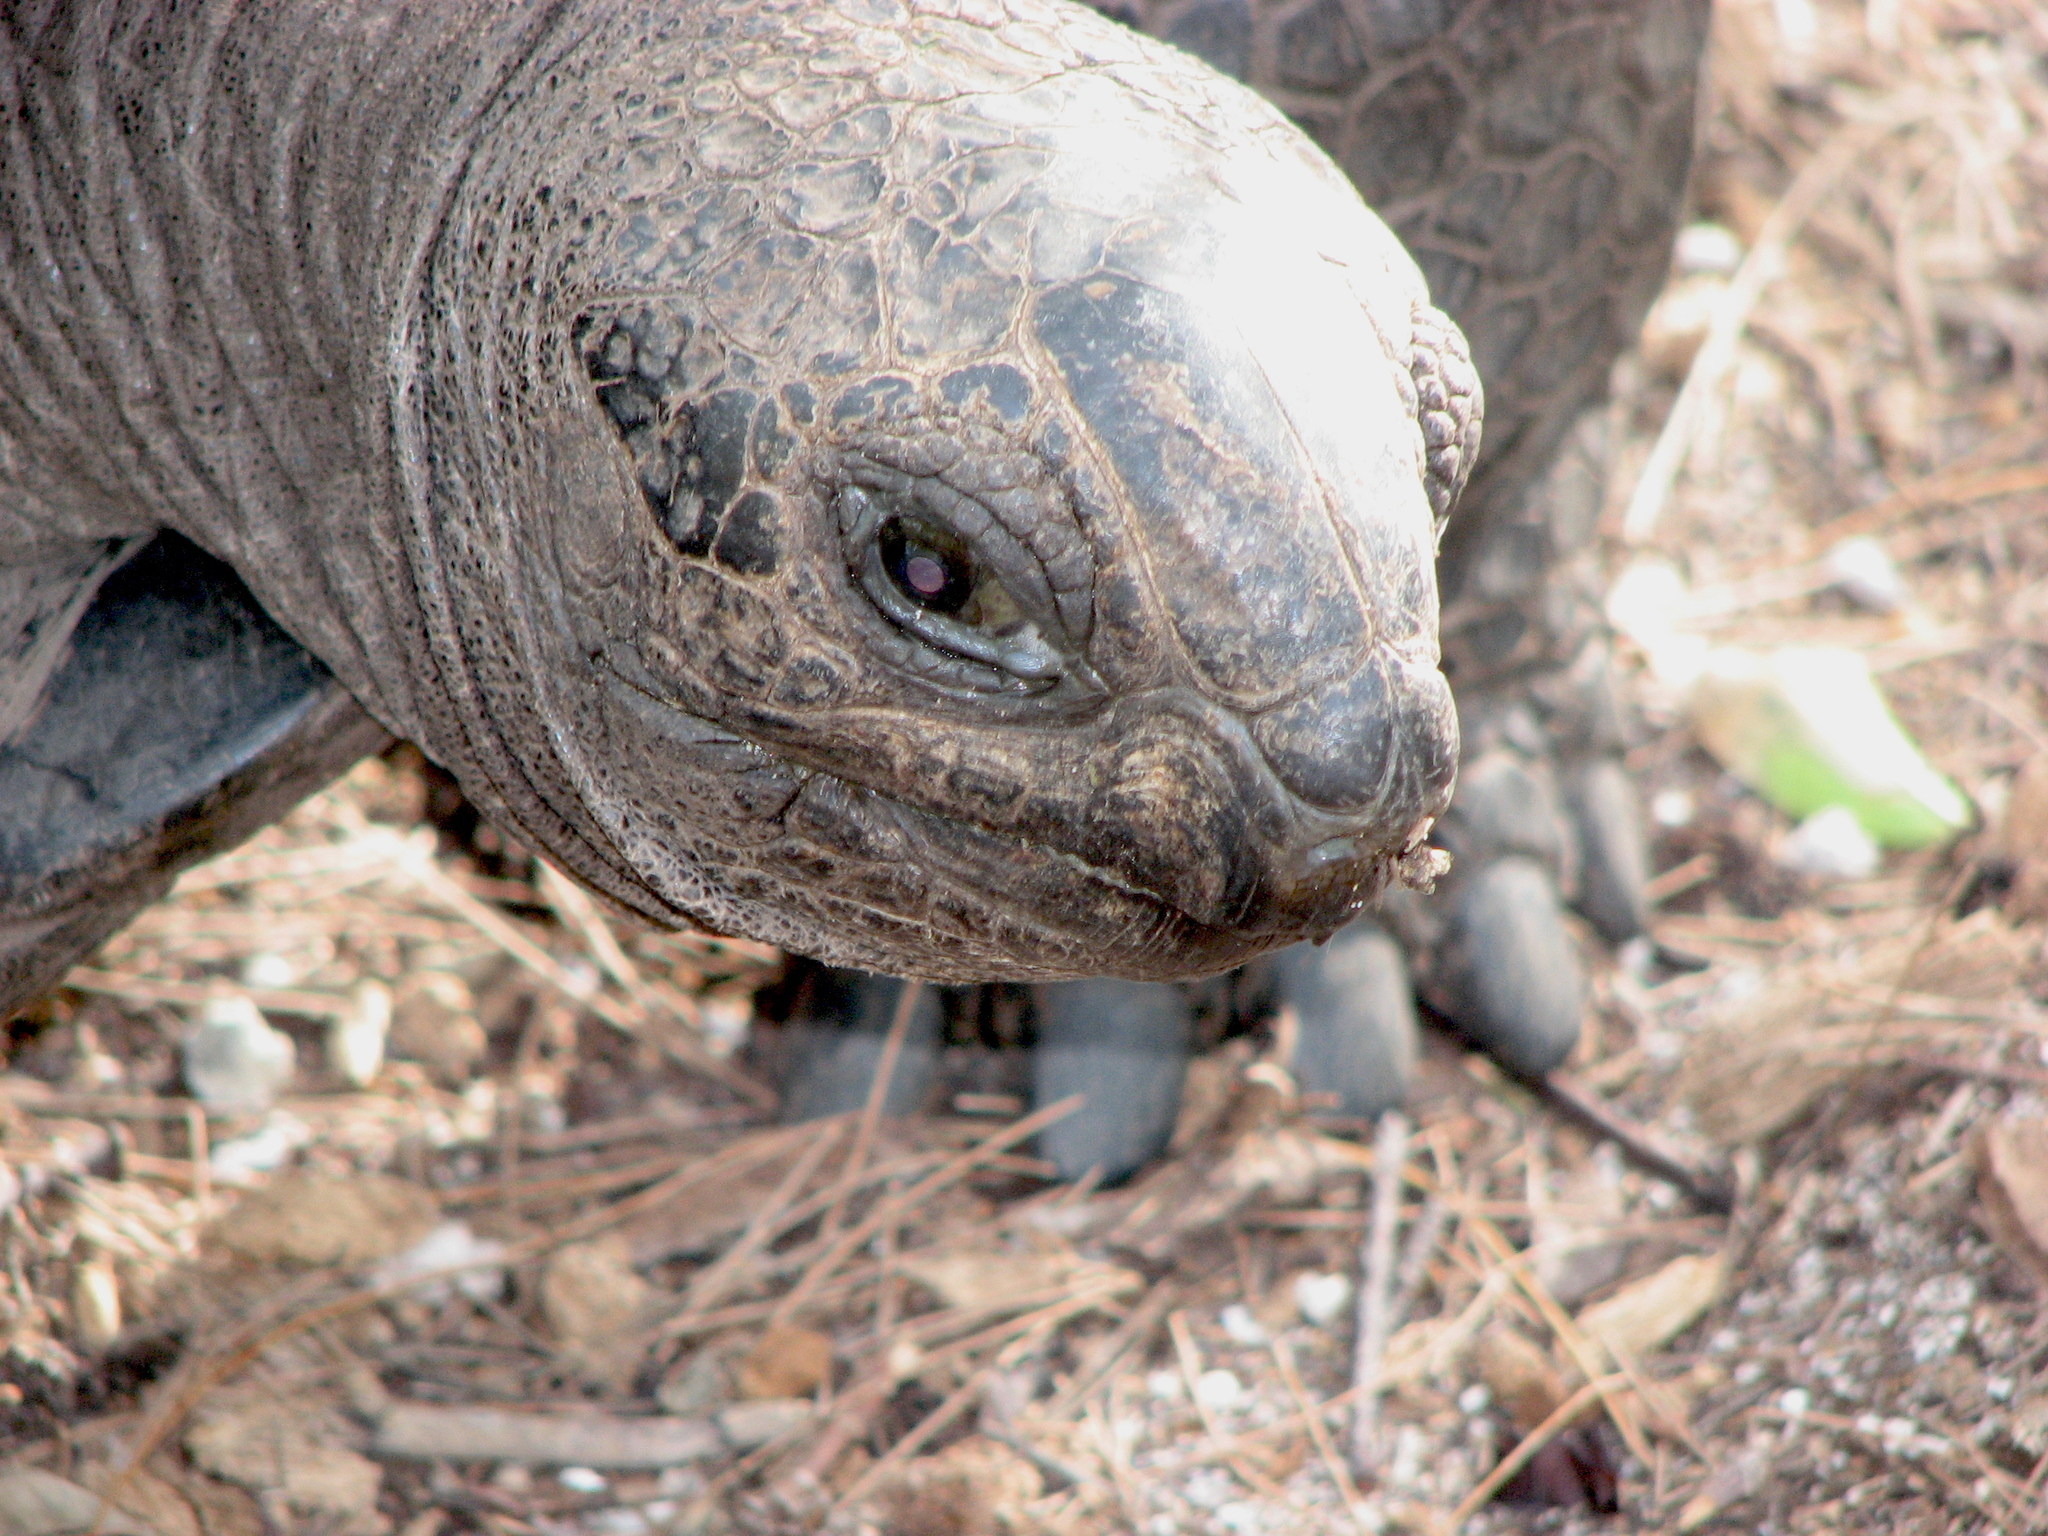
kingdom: Animalia
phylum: Chordata
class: Testudines
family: Testudinidae
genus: Aldabrachelys
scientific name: Aldabrachelys gigantea
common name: Aldabra giant tortoise
